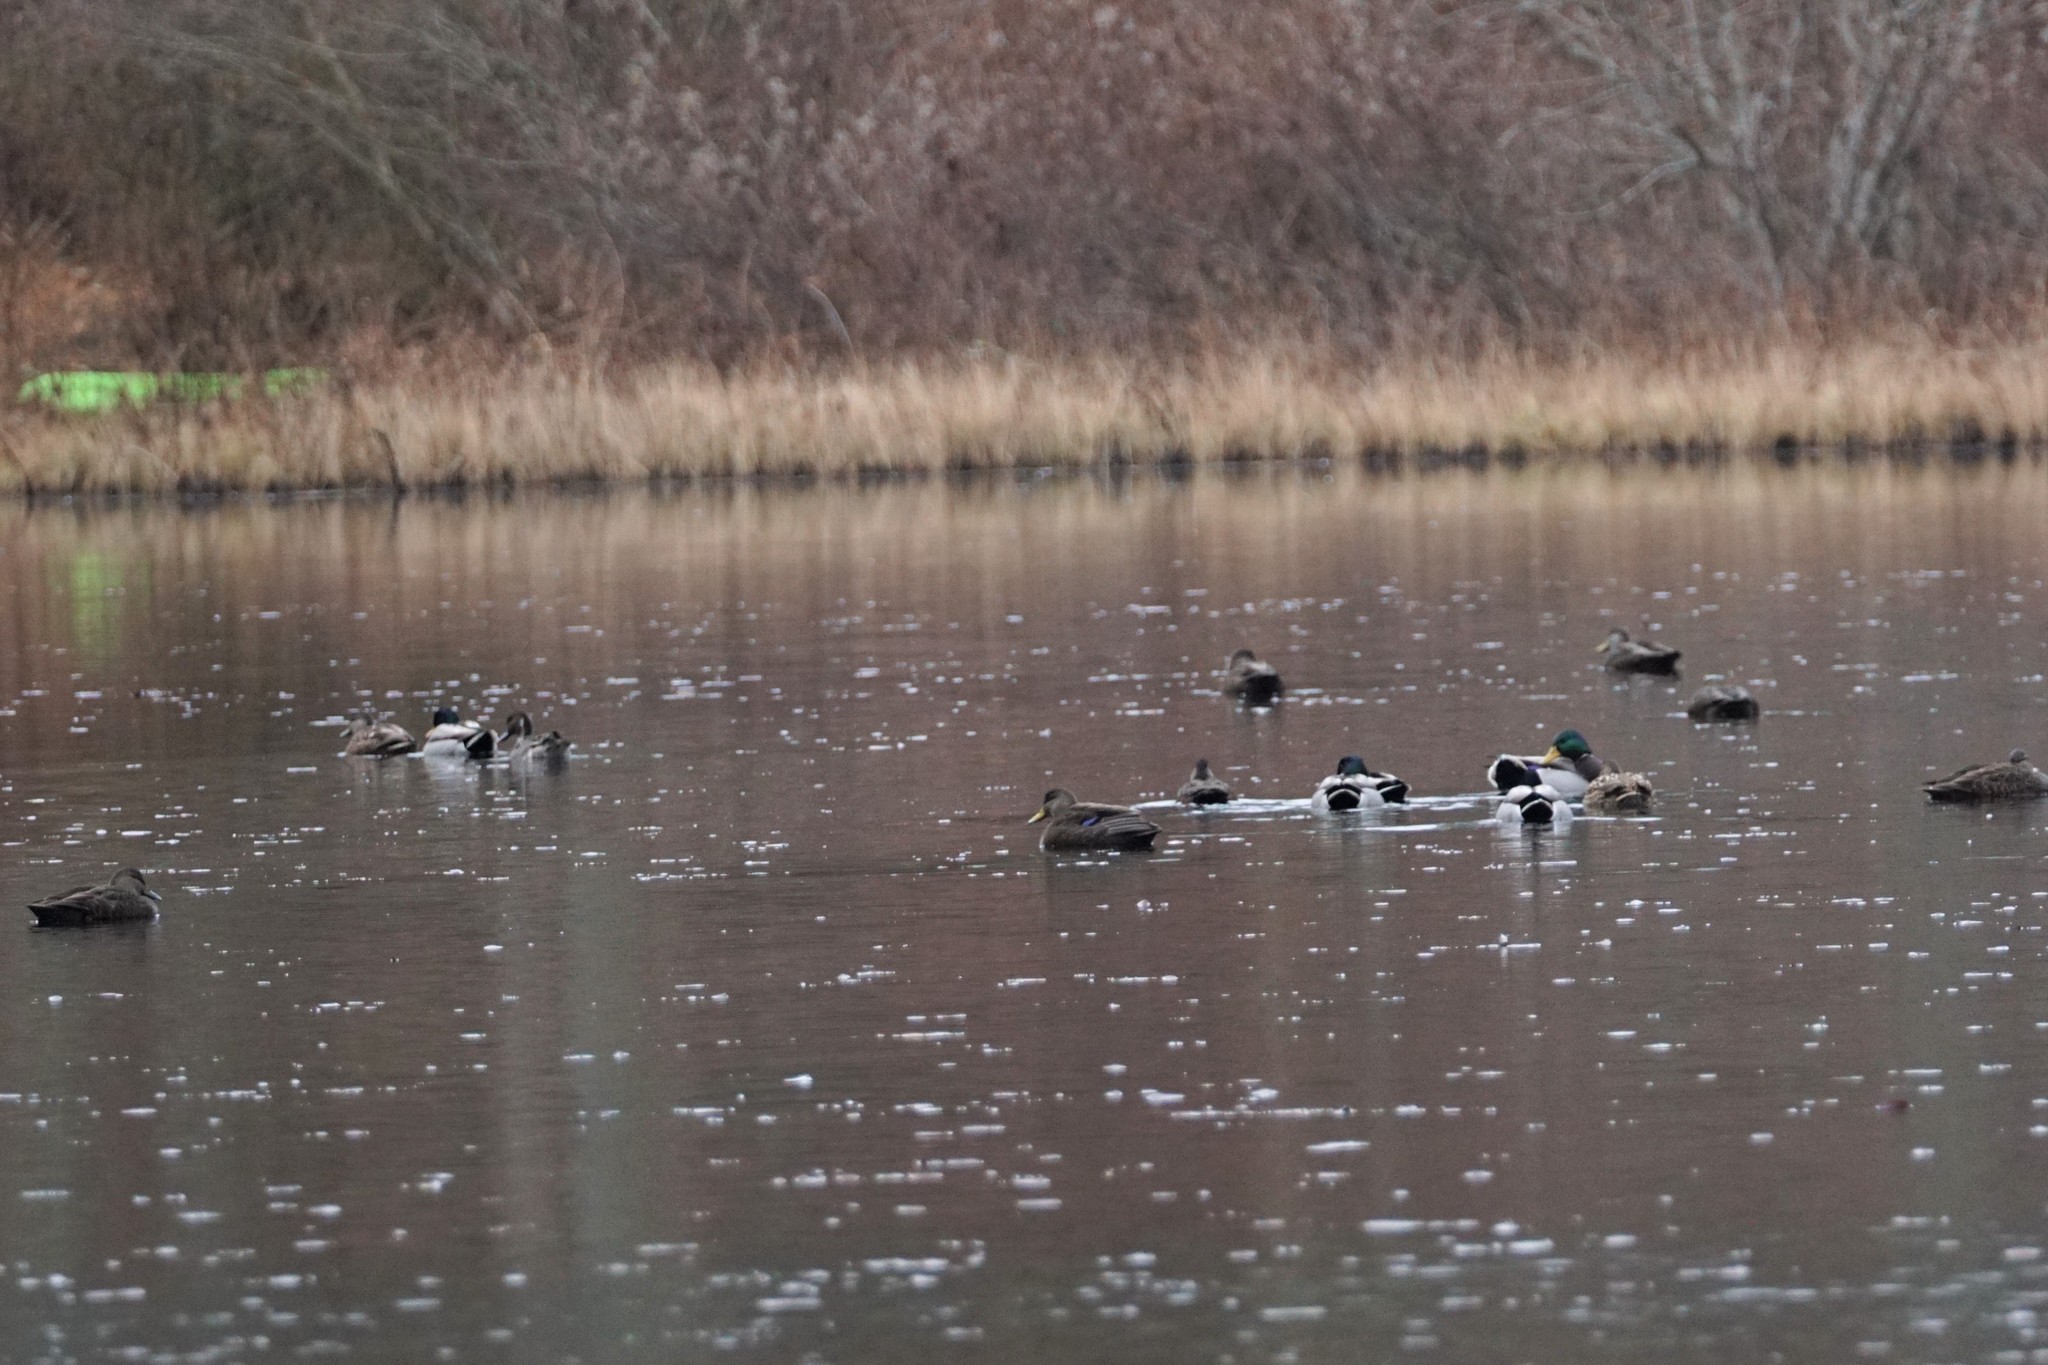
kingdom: Animalia
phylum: Chordata
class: Aves
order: Anseriformes
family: Anatidae
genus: Anas
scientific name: Anas rubripes
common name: American black duck
